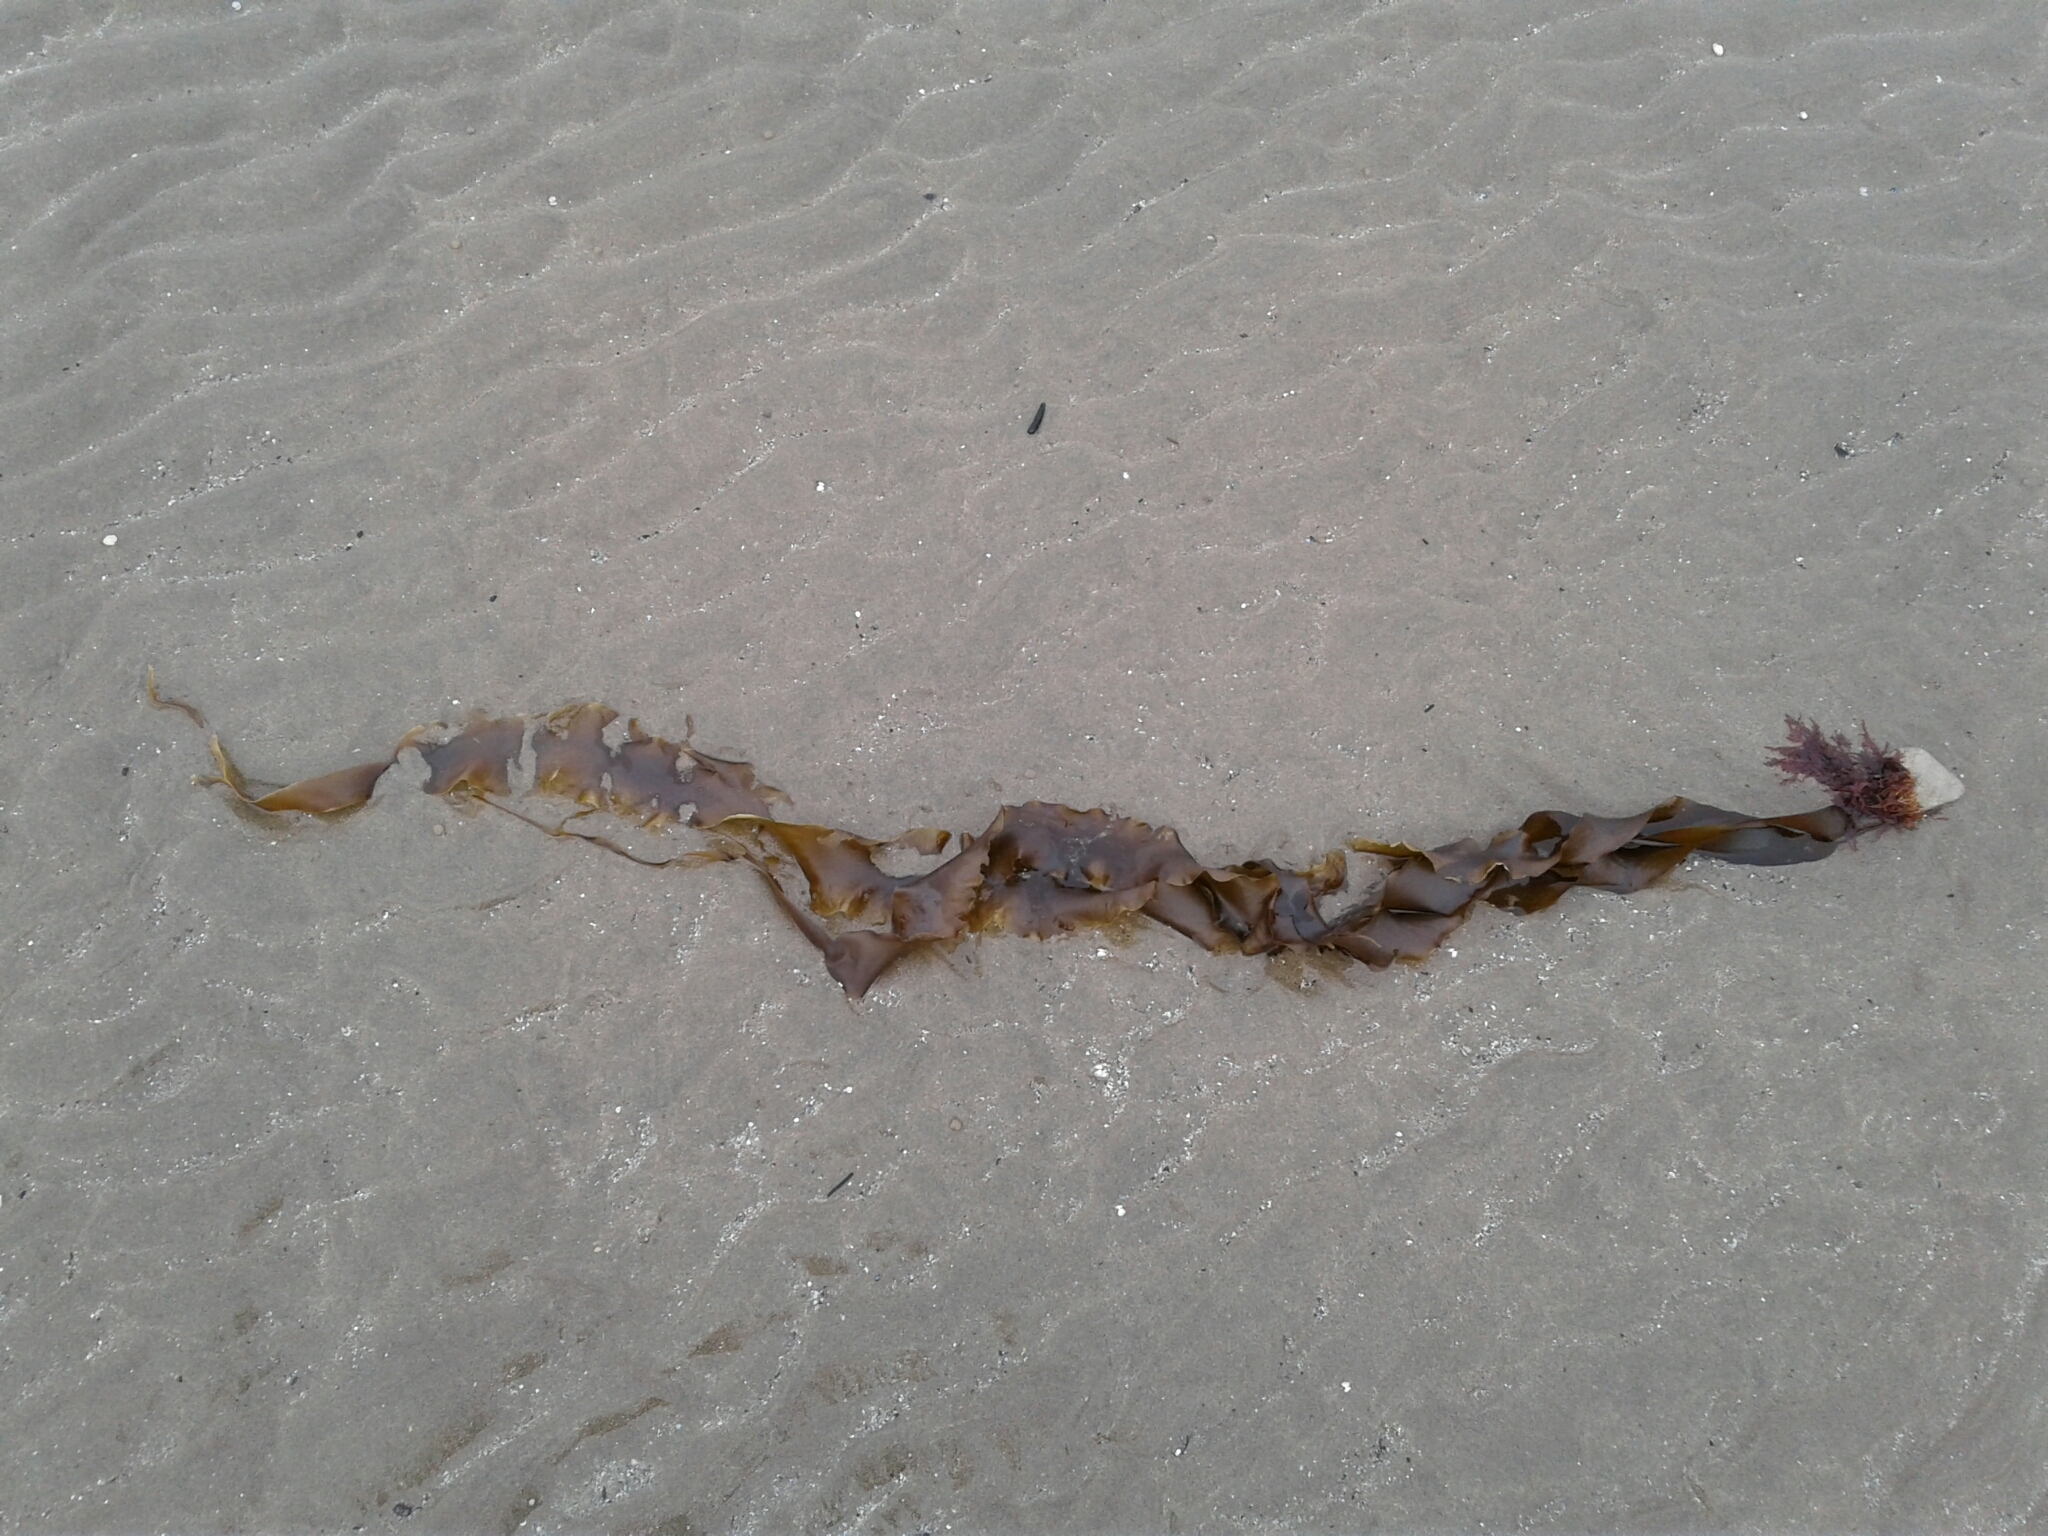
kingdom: Chromista
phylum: Ochrophyta
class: Phaeophyceae
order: Laminariales
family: Laminariaceae
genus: Saccharina
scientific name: Saccharina latissima
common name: Poor man's weather glass
